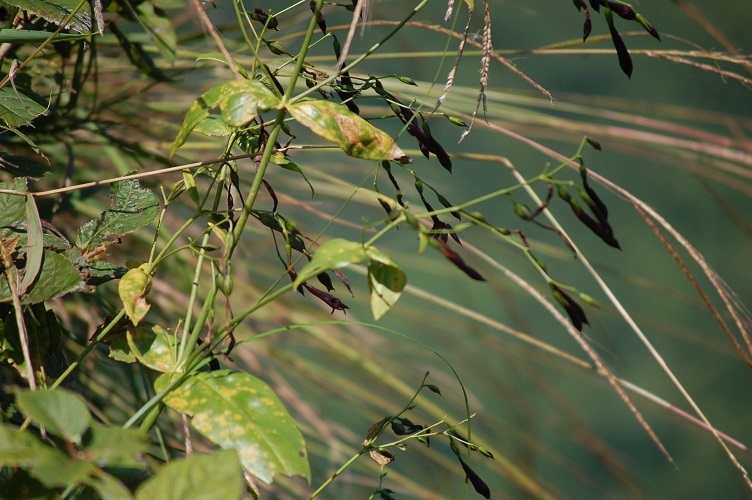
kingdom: Plantae
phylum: Tracheophyta
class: Magnoliopsida
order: Gentianales
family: Gentianaceae
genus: Lisianthus
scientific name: Lisianthus nigrescens
